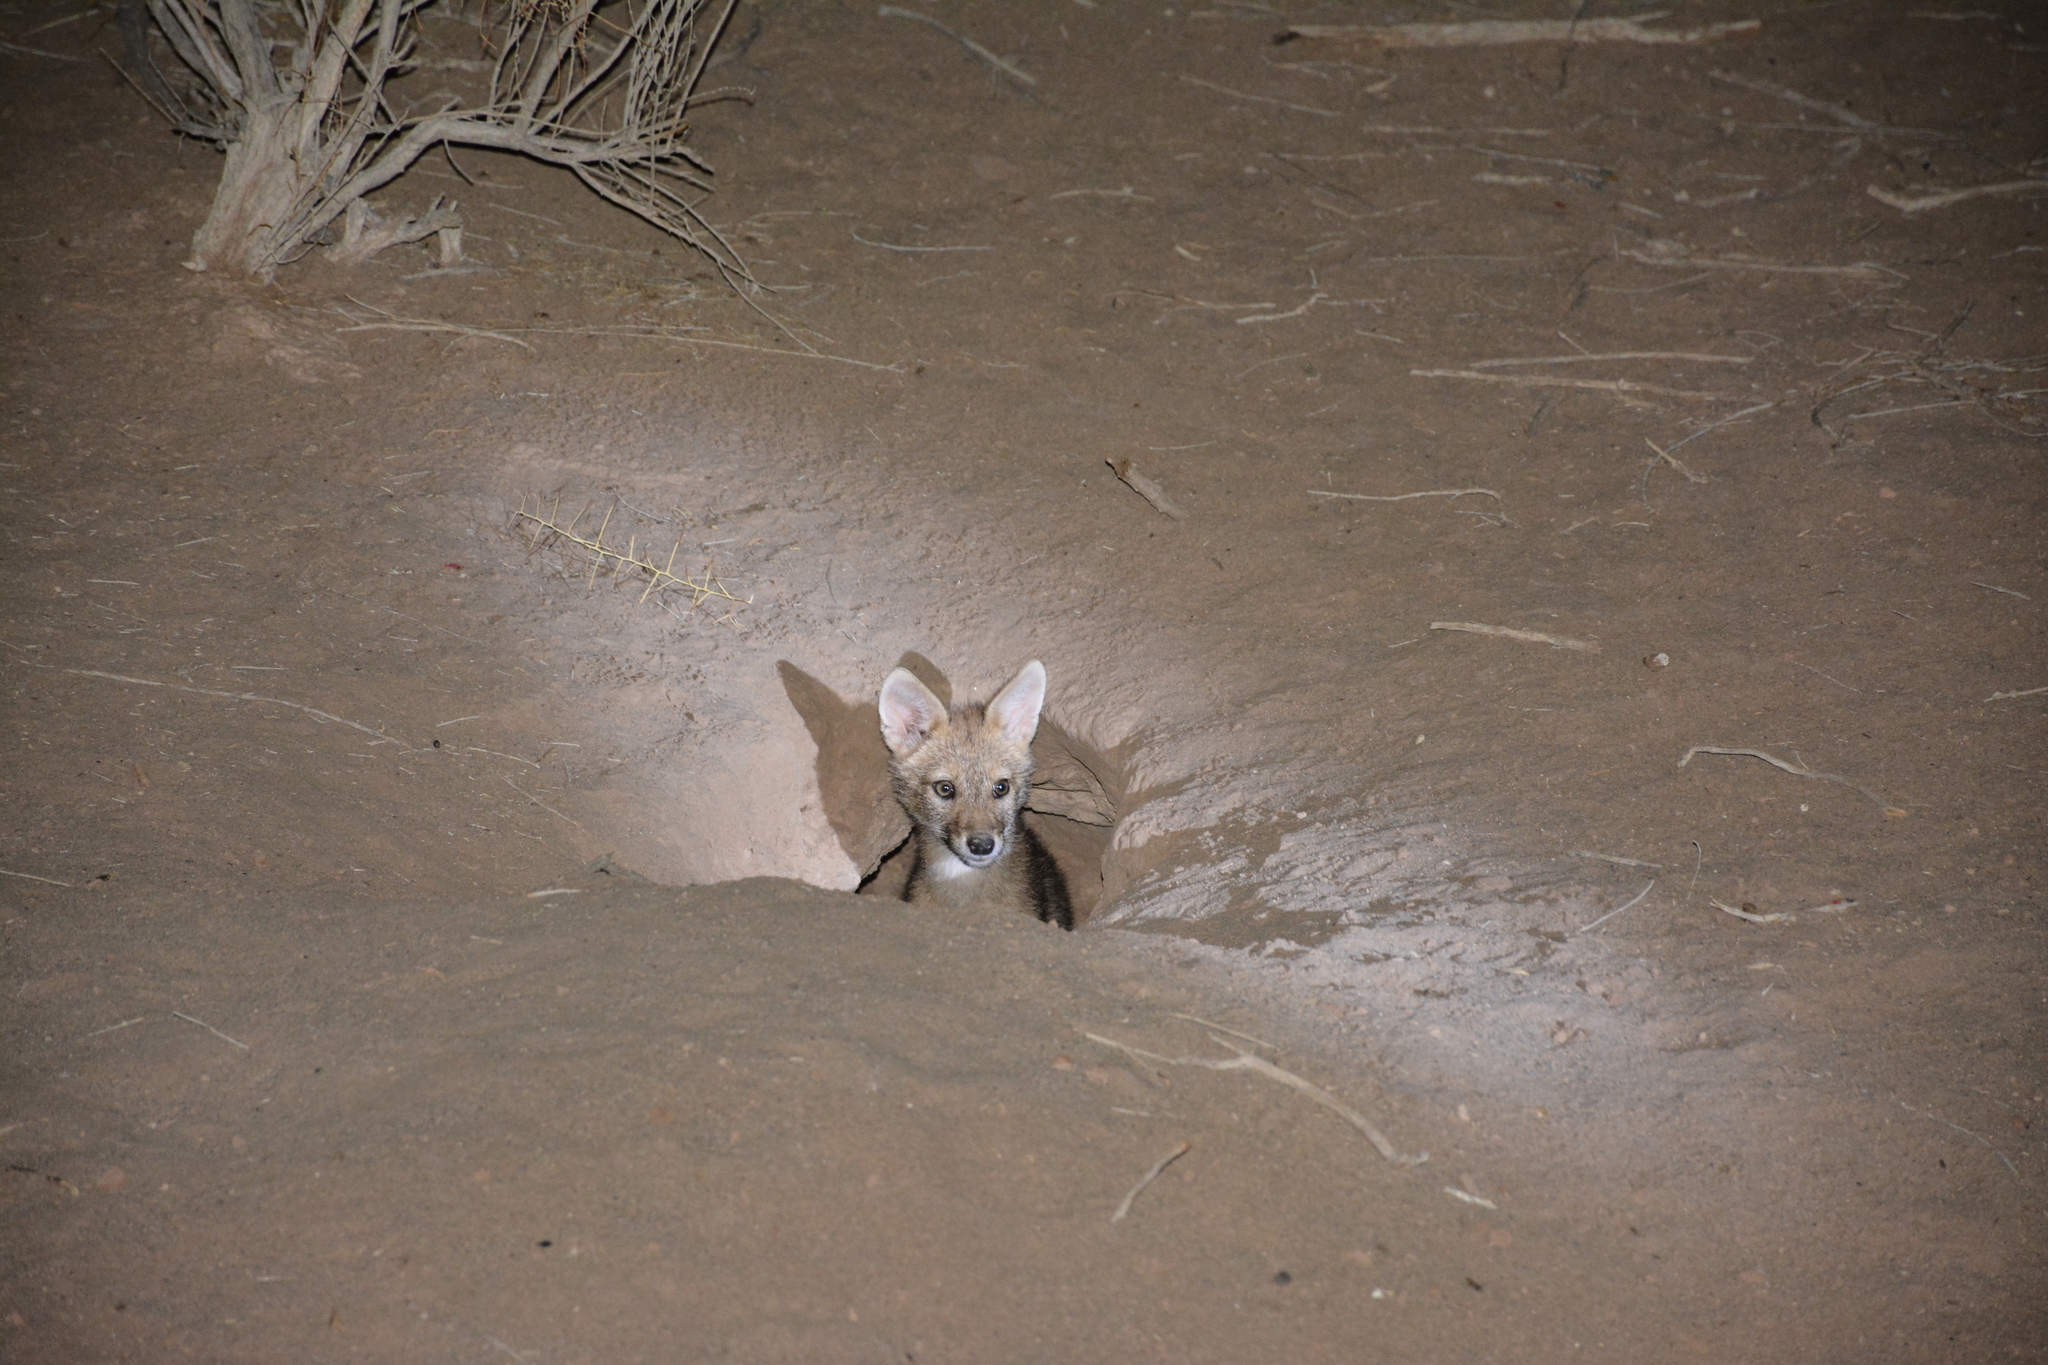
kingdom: Animalia
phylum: Chordata
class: Mammalia
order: Carnivora
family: Canidae
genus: Canis
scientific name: Canis aureus
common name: Golden jackal
